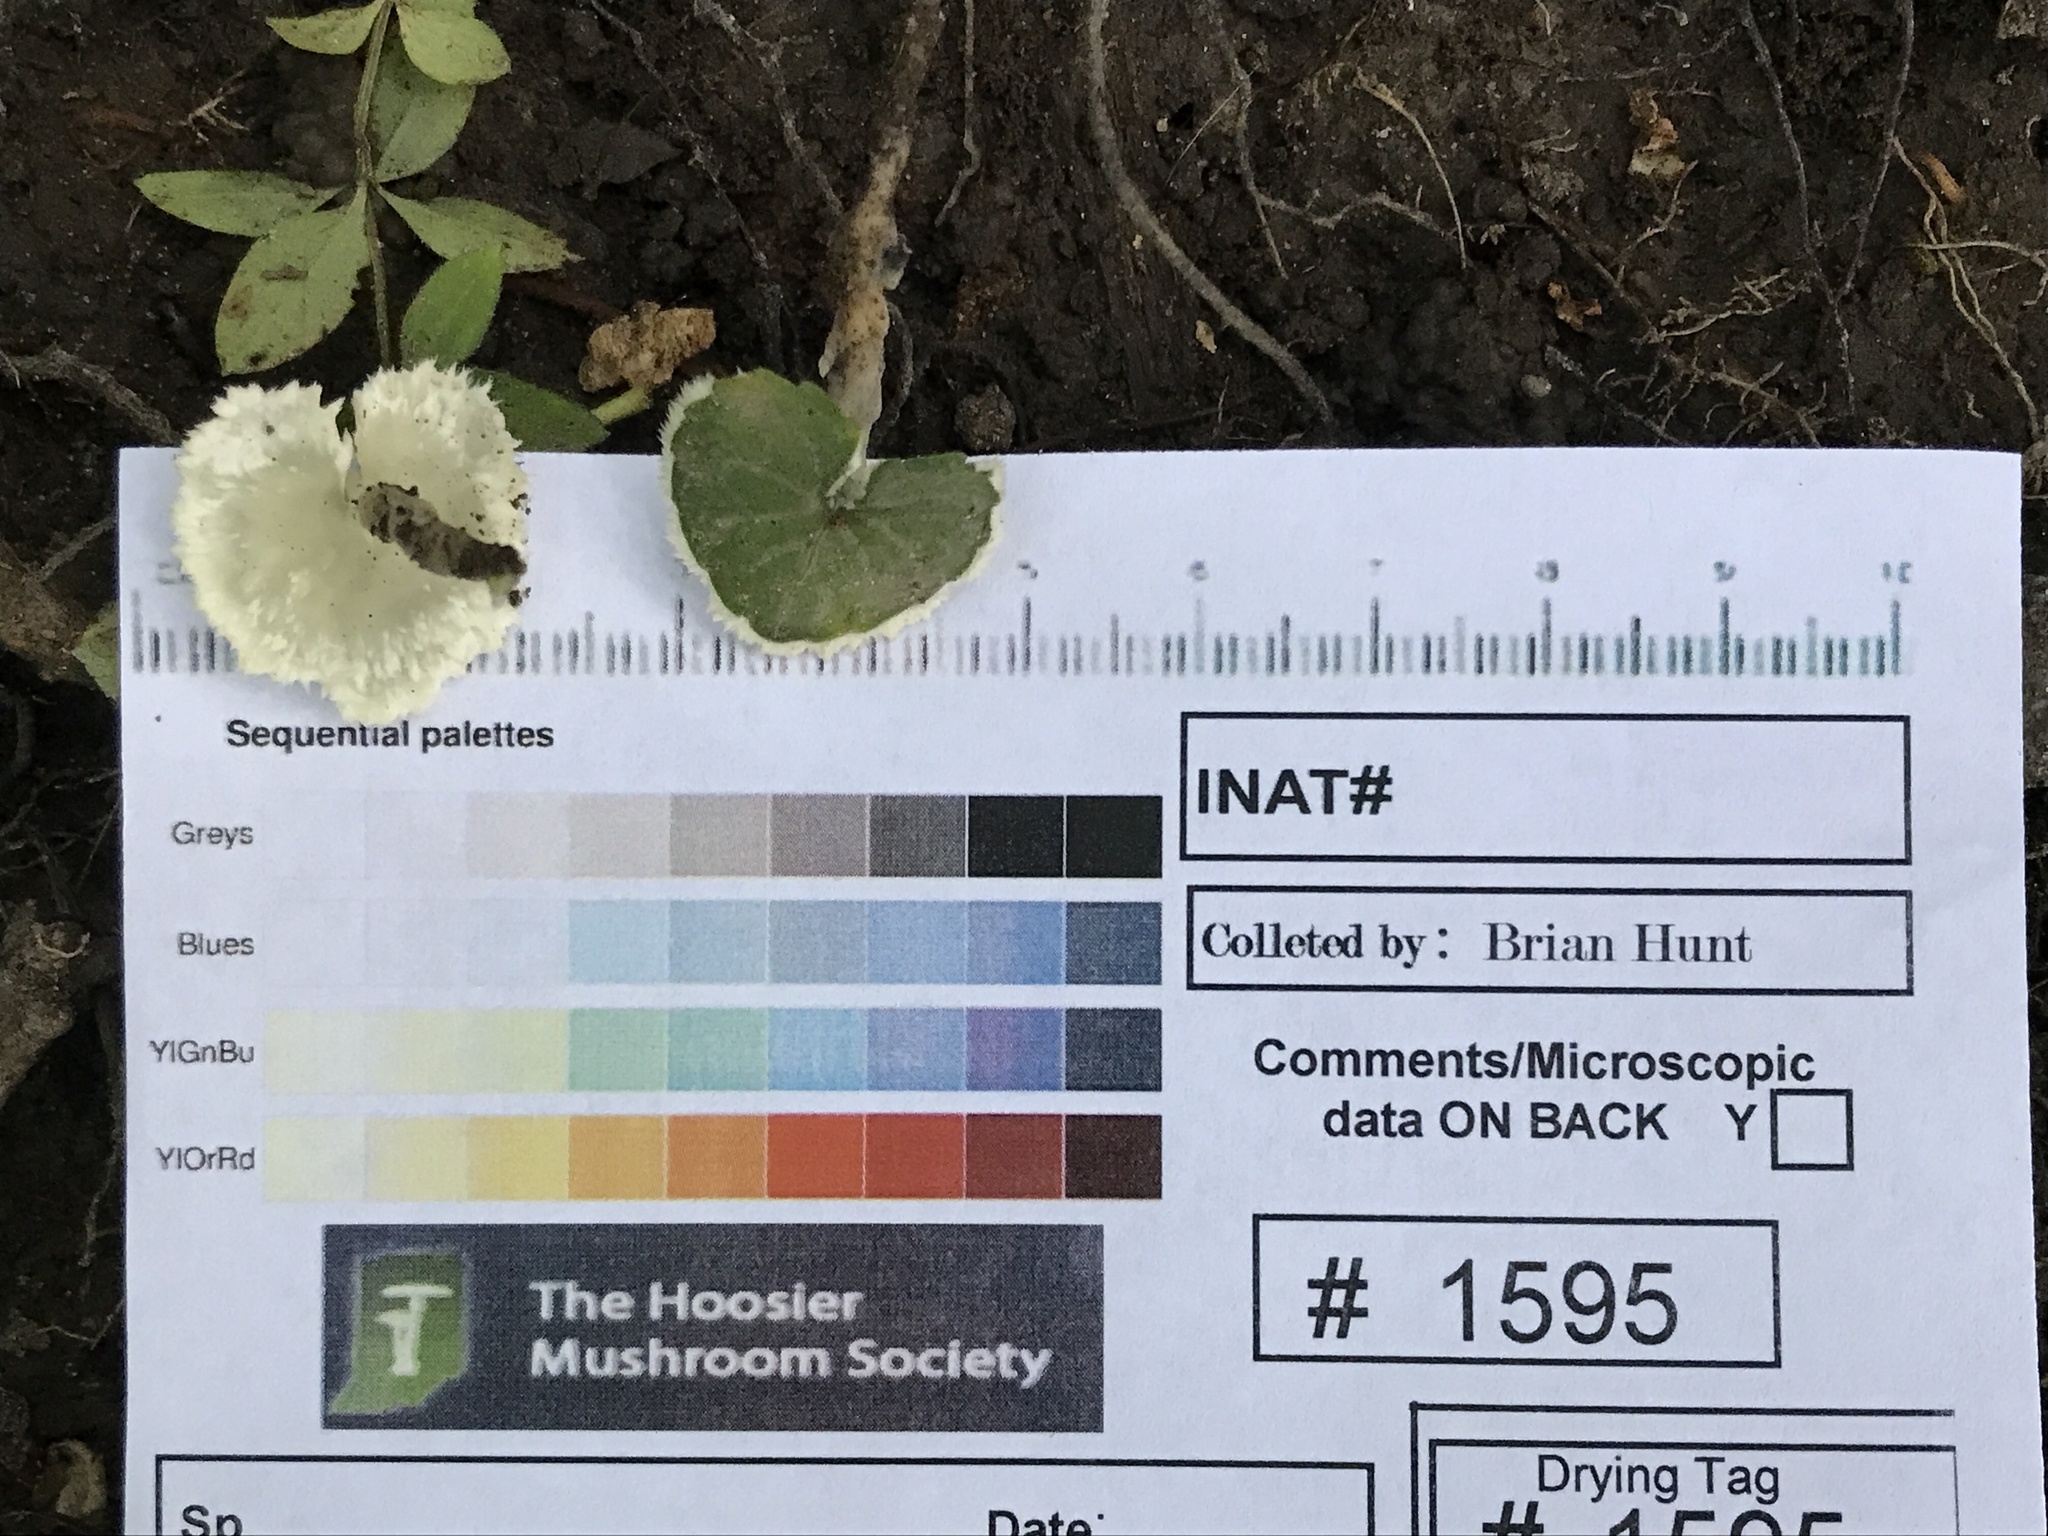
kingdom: Fungi
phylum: Basidiomycota
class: Agaricomycetes
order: Sebacinales
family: Sebacinaceae
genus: Sebacina
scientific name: Sebacina incrustans
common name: Enveloping crust
